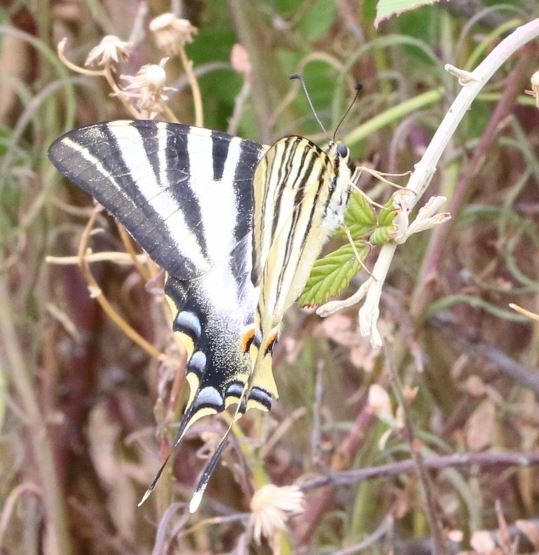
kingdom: Animalia
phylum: Arthropoda
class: Insecta
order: Lepidoptera
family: Papilionidae
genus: Iphiclides
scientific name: Iphiclides feisthamelii
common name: Iberian scarce swallowtail
